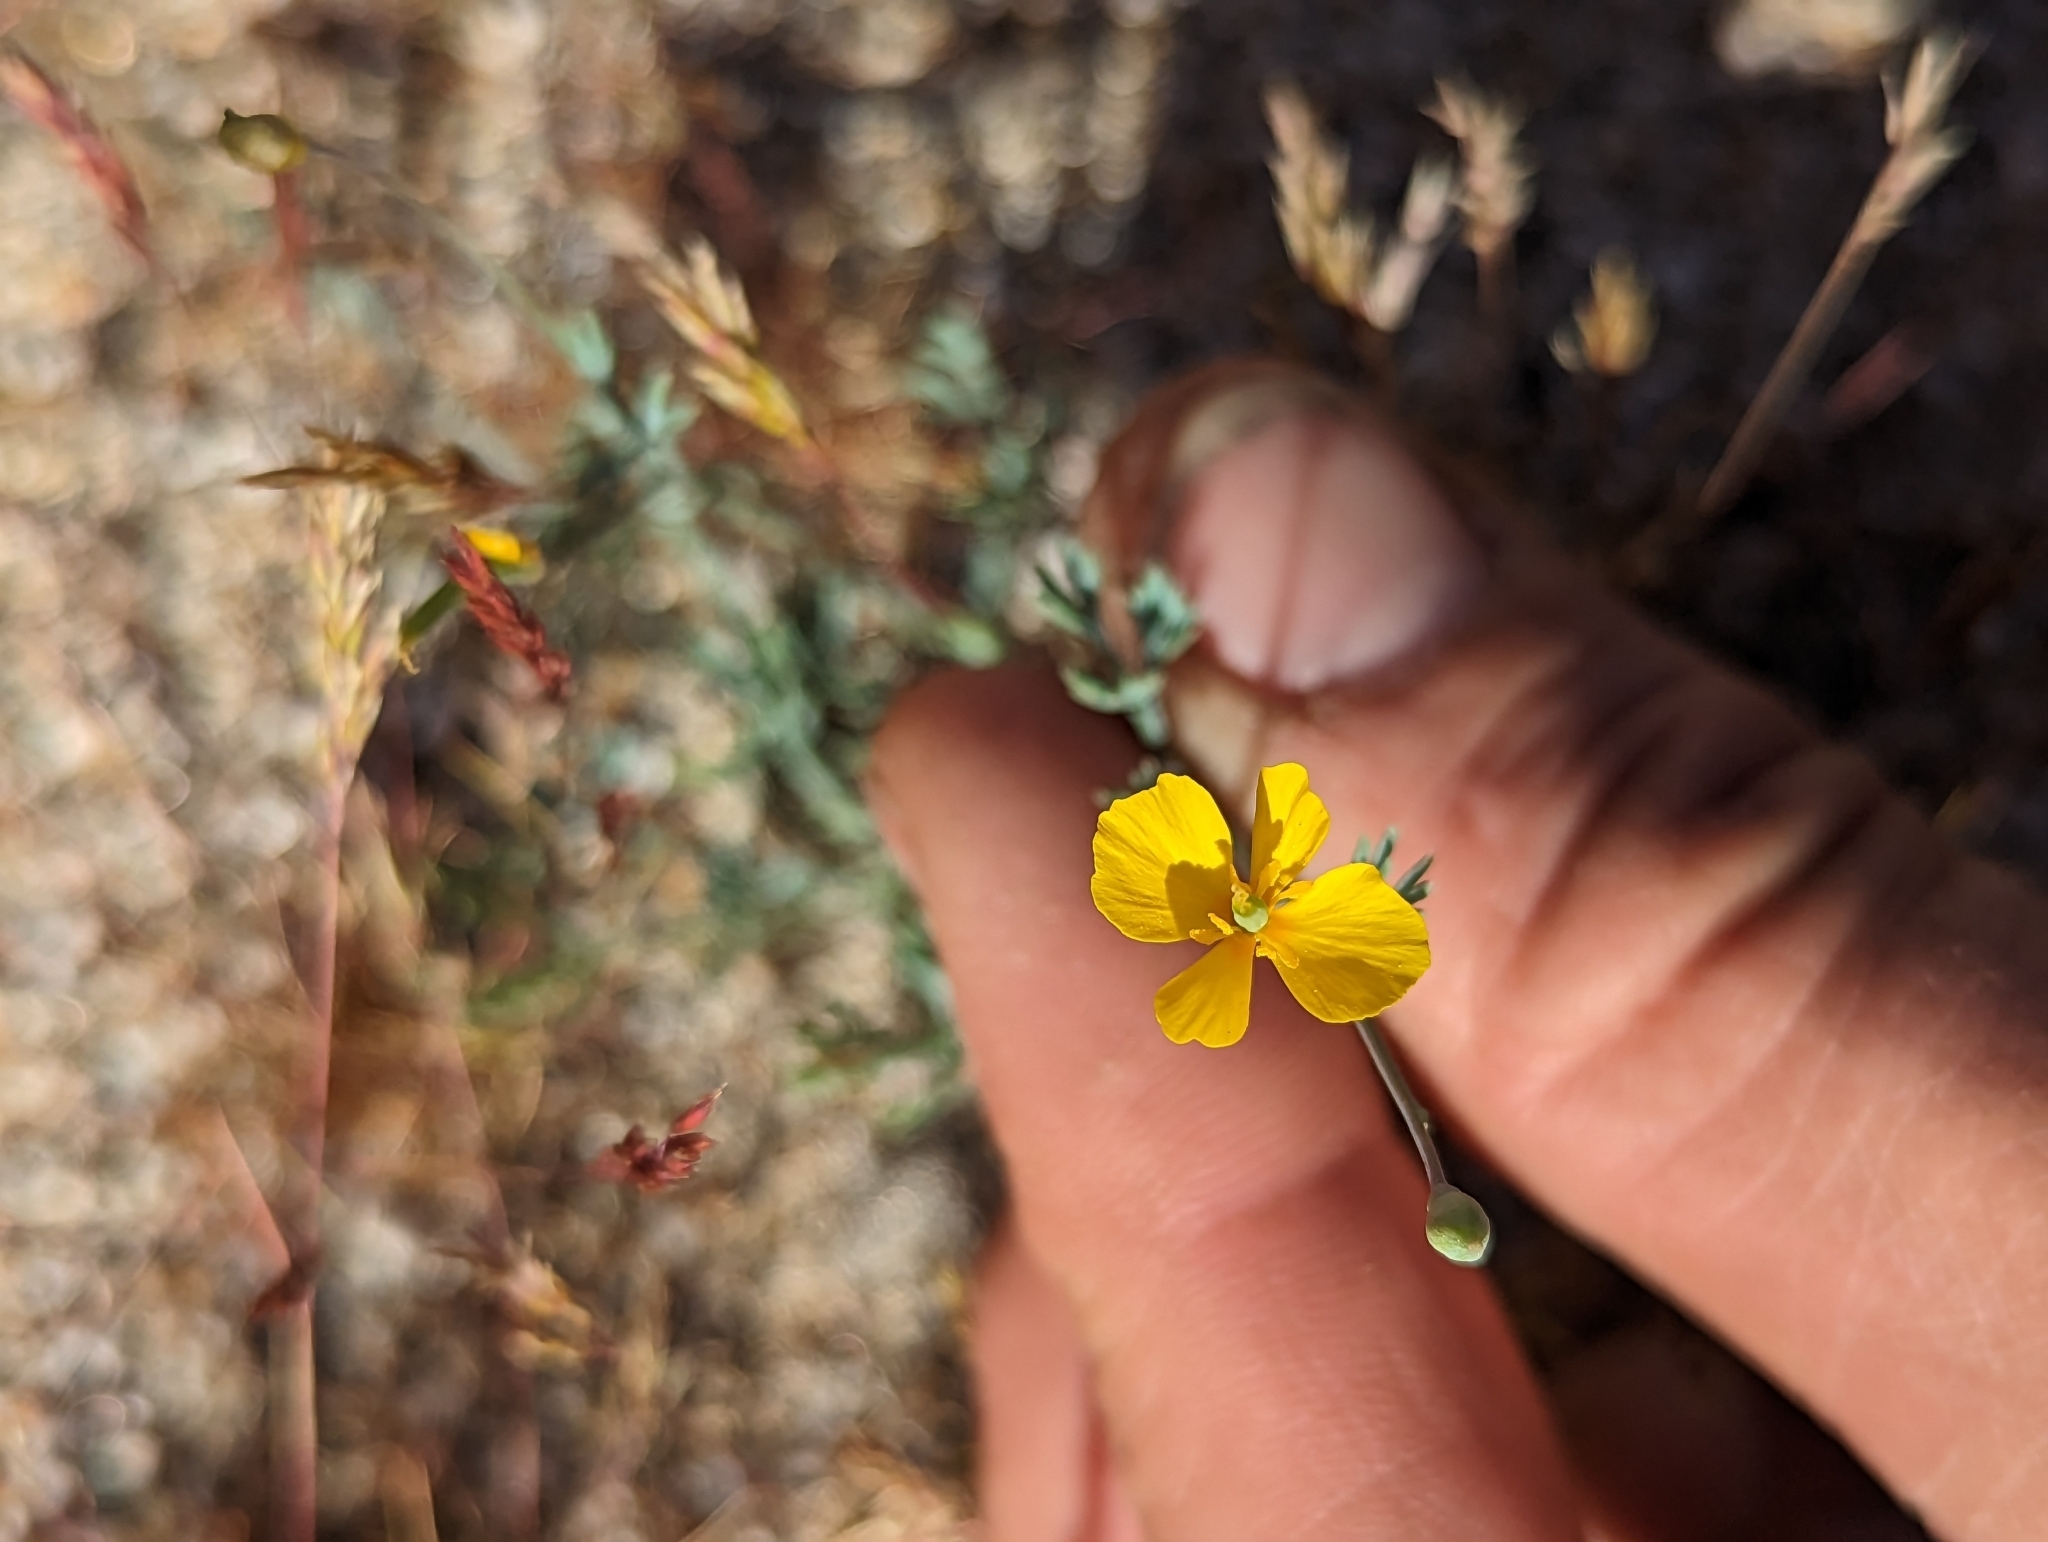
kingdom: Plantae
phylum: Tracheophyta
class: Magnoliopsida
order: Ranunculales
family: Papaveraceae
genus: Eschscholzia
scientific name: Eschscholzia minutiflora
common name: Small-flower california-poppy
